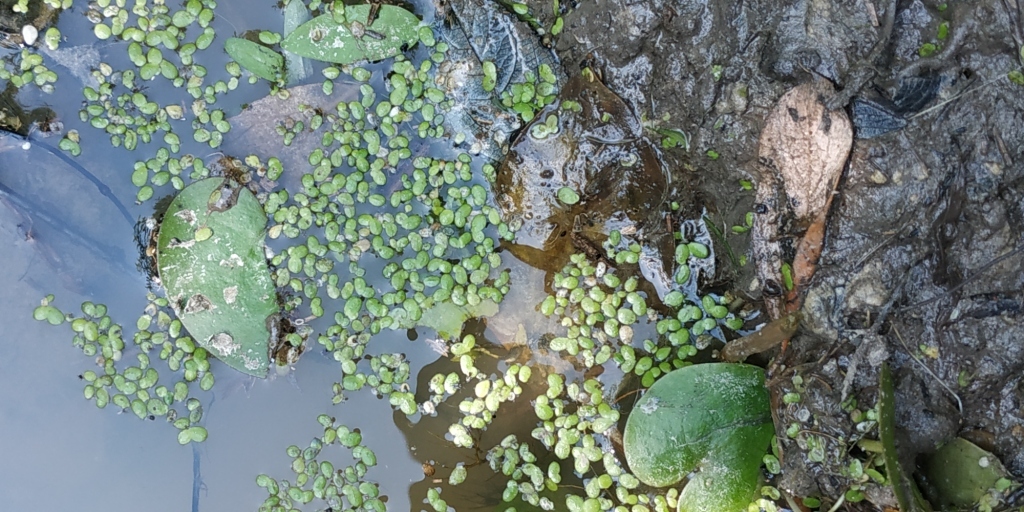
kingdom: Plantae
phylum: Tracheophyta
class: Liliopsida
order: Alismatales
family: Araceae
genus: Lemna
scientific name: Lemna minor
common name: Common duckweed
